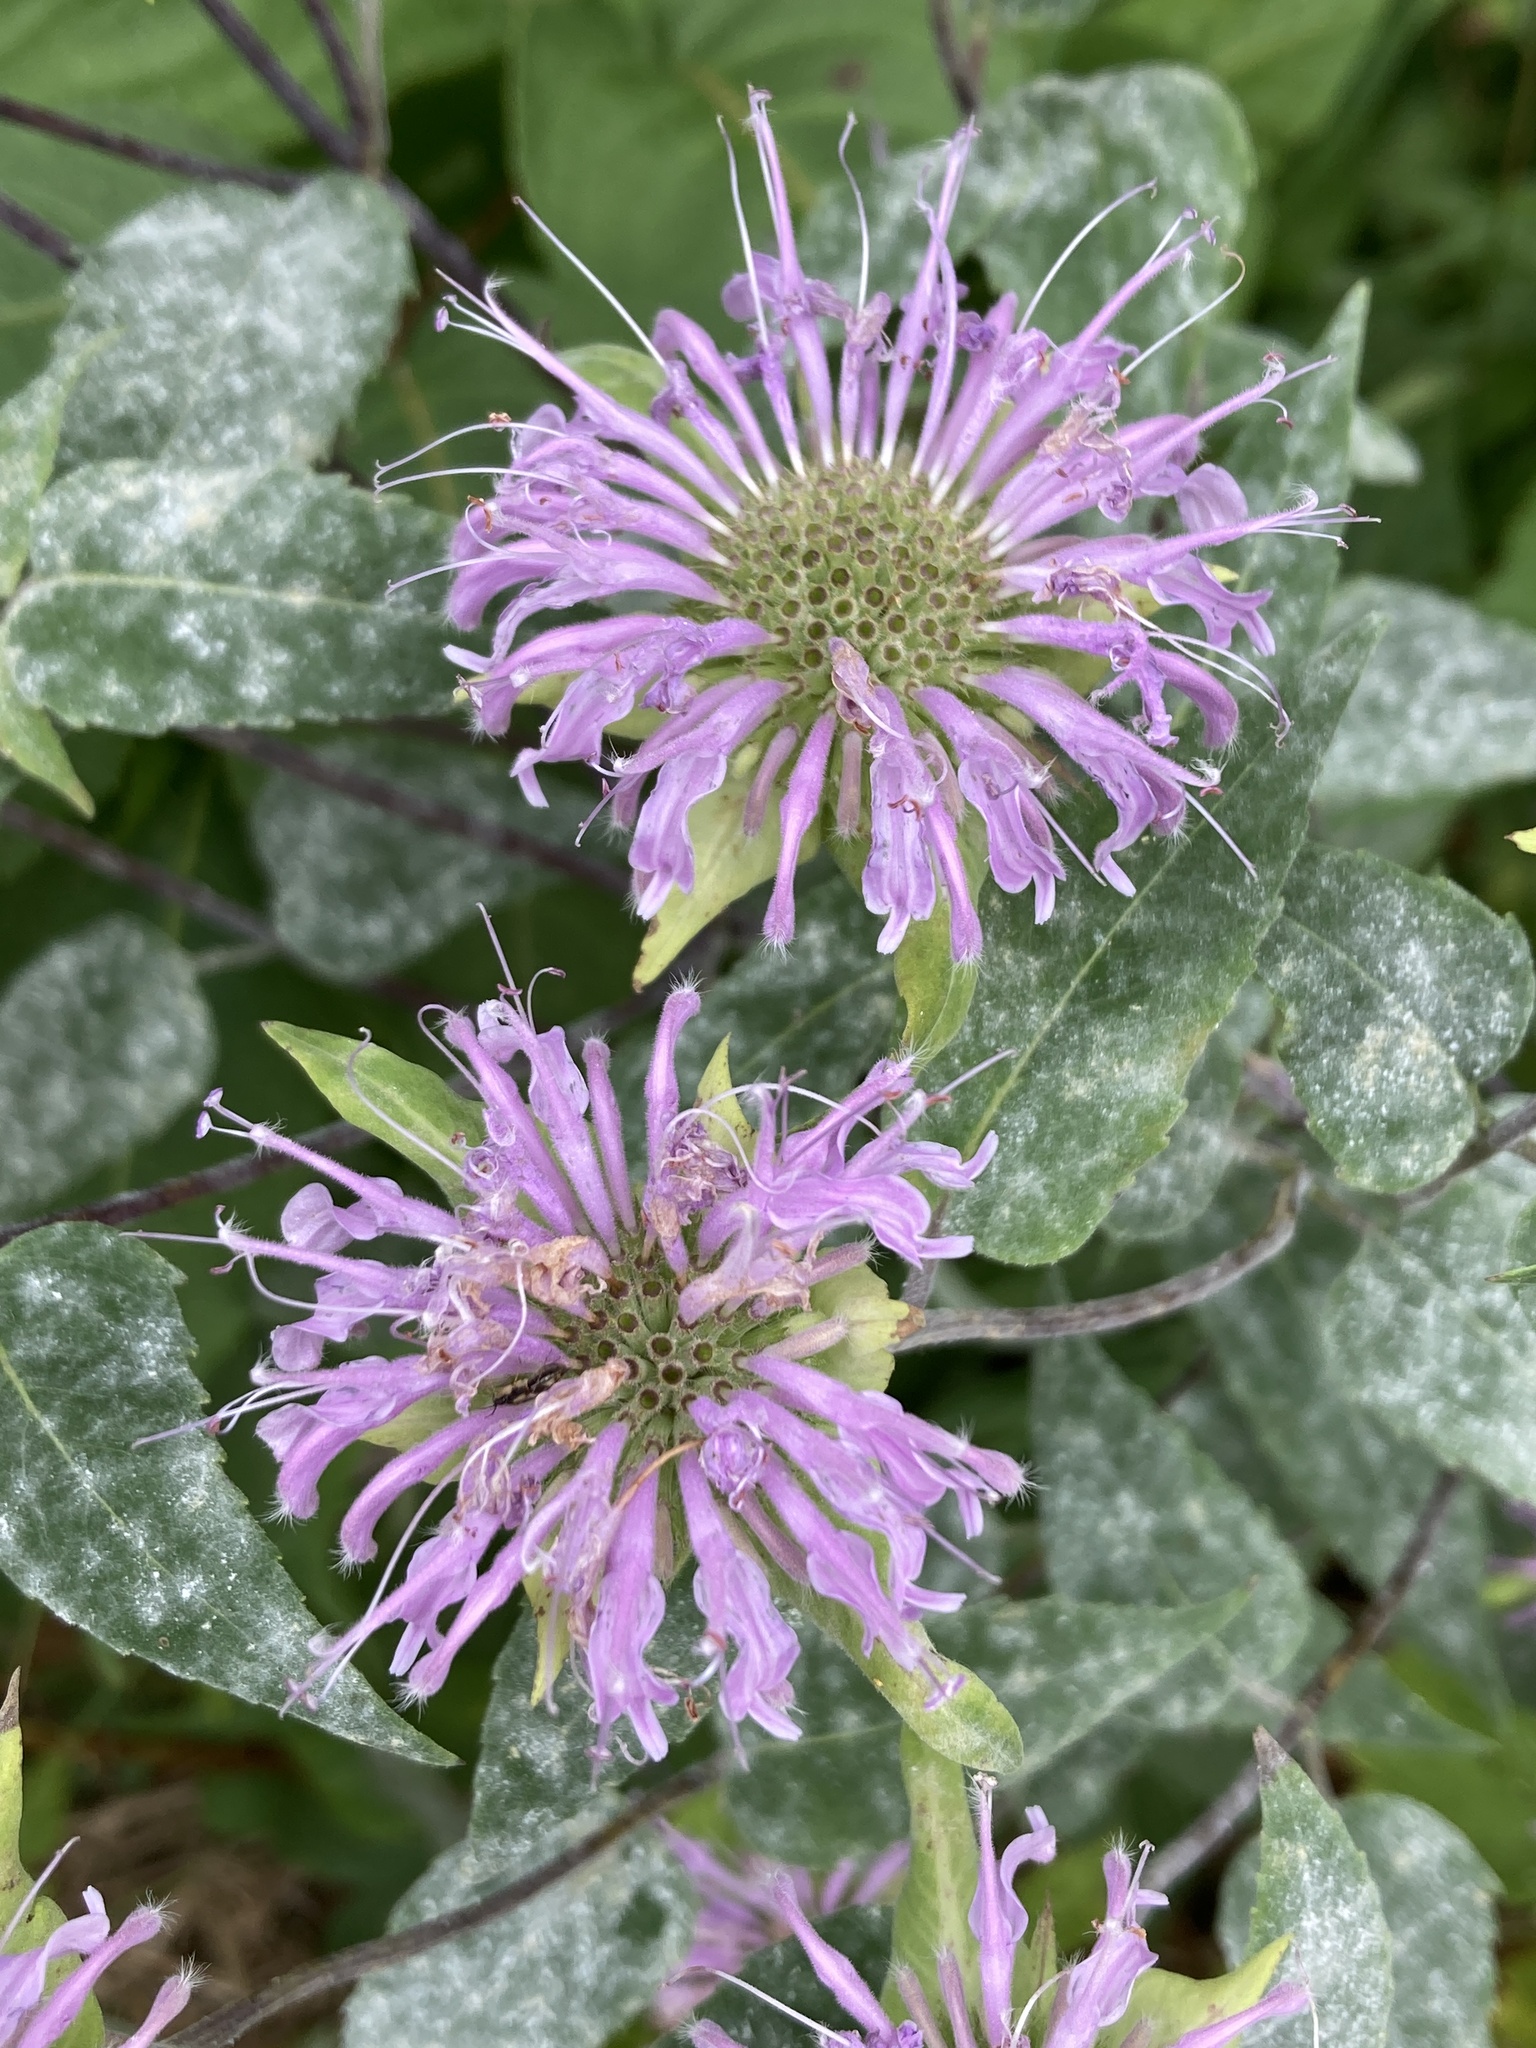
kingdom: Plantae
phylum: Tracheophyta
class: Magnoliopsida
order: Lamiales
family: Lamiaceae
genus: Monarda
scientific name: Monarda fistulosa
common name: Purple beebalm
